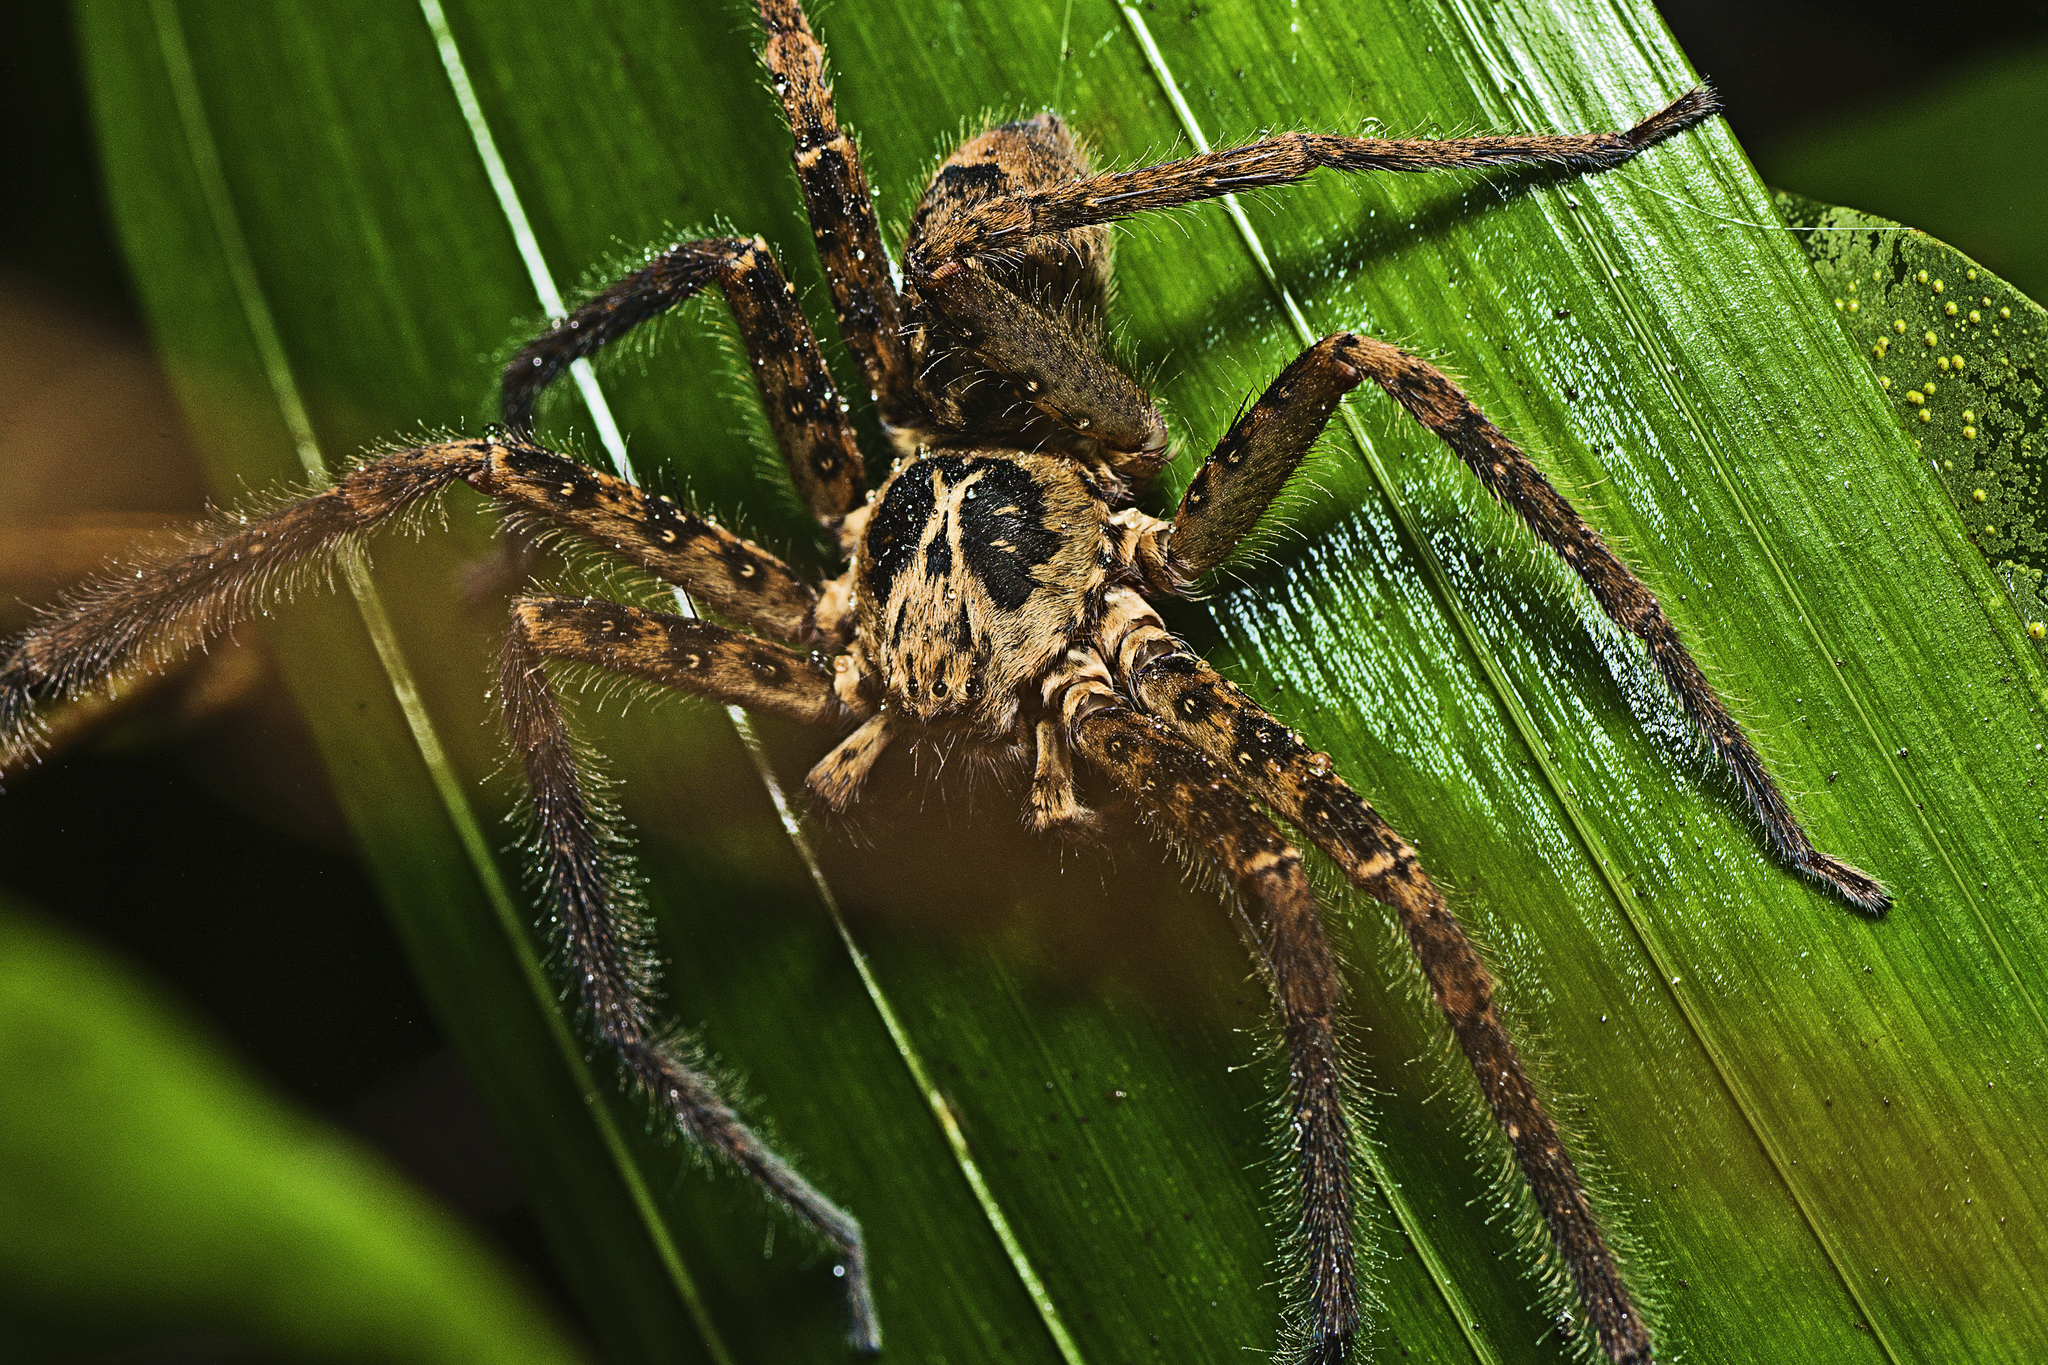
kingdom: Animalia
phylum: Arthropoda
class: Arachnida
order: Araneae
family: Sparassidae
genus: Heteropoda
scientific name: Heteropoda hillerae
